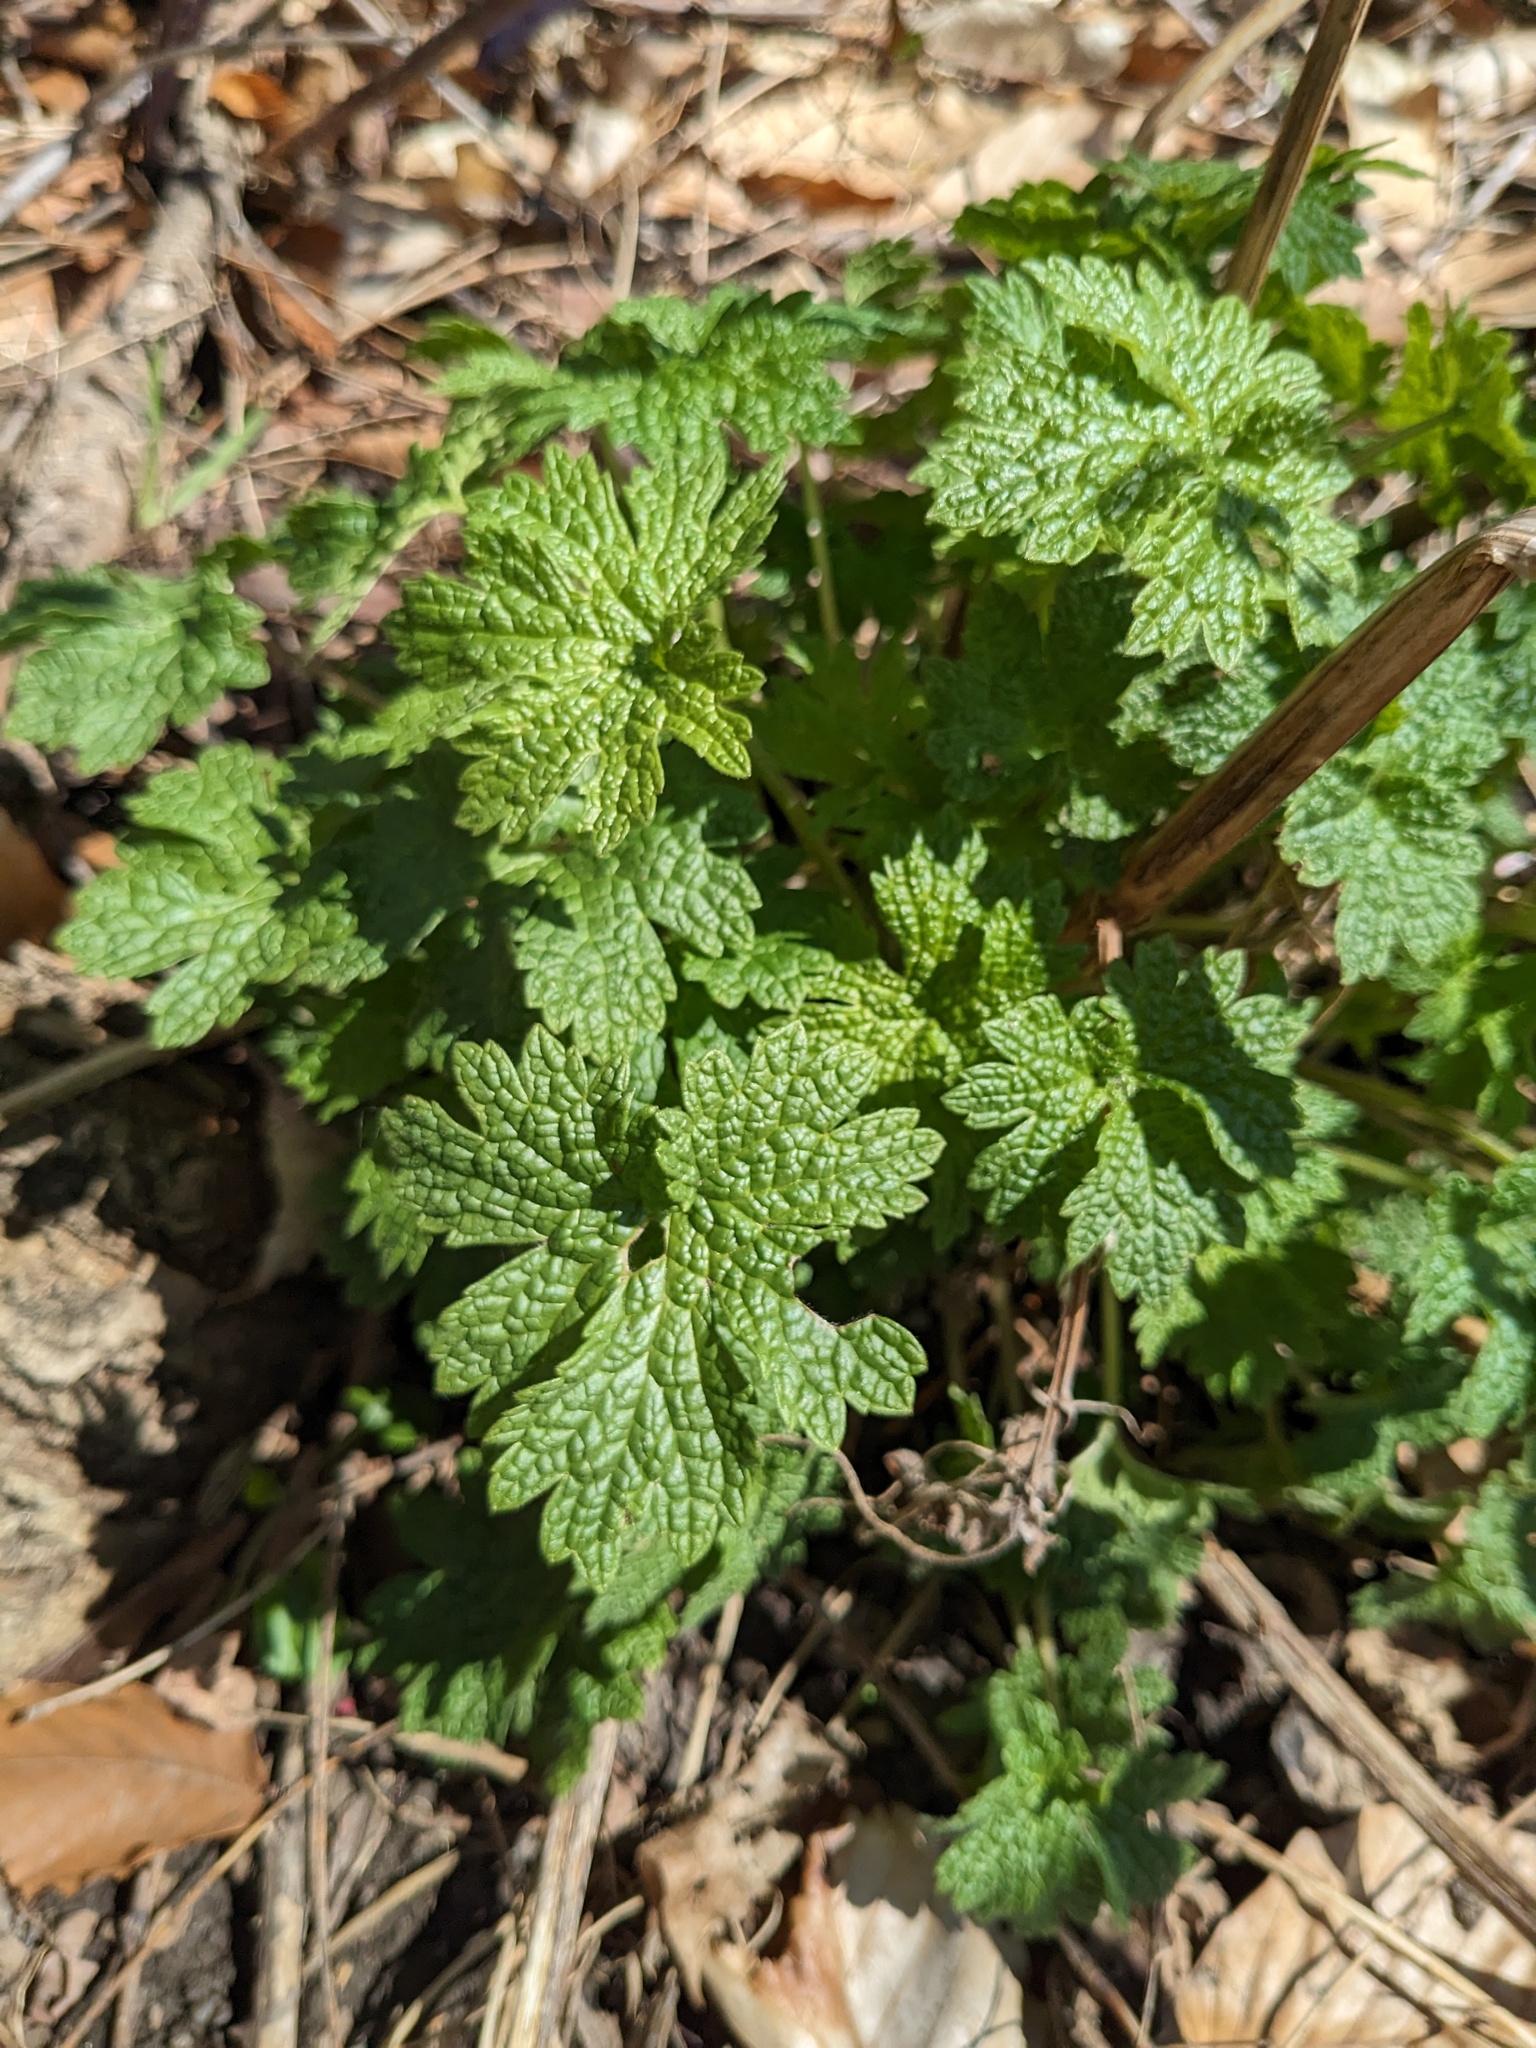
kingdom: Plantae
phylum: Tracheophyta
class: Magnoliopsida
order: Lamiales
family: Lamiaceae
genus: Leonurus
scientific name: Leonurus cardiaca
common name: Motherwort
